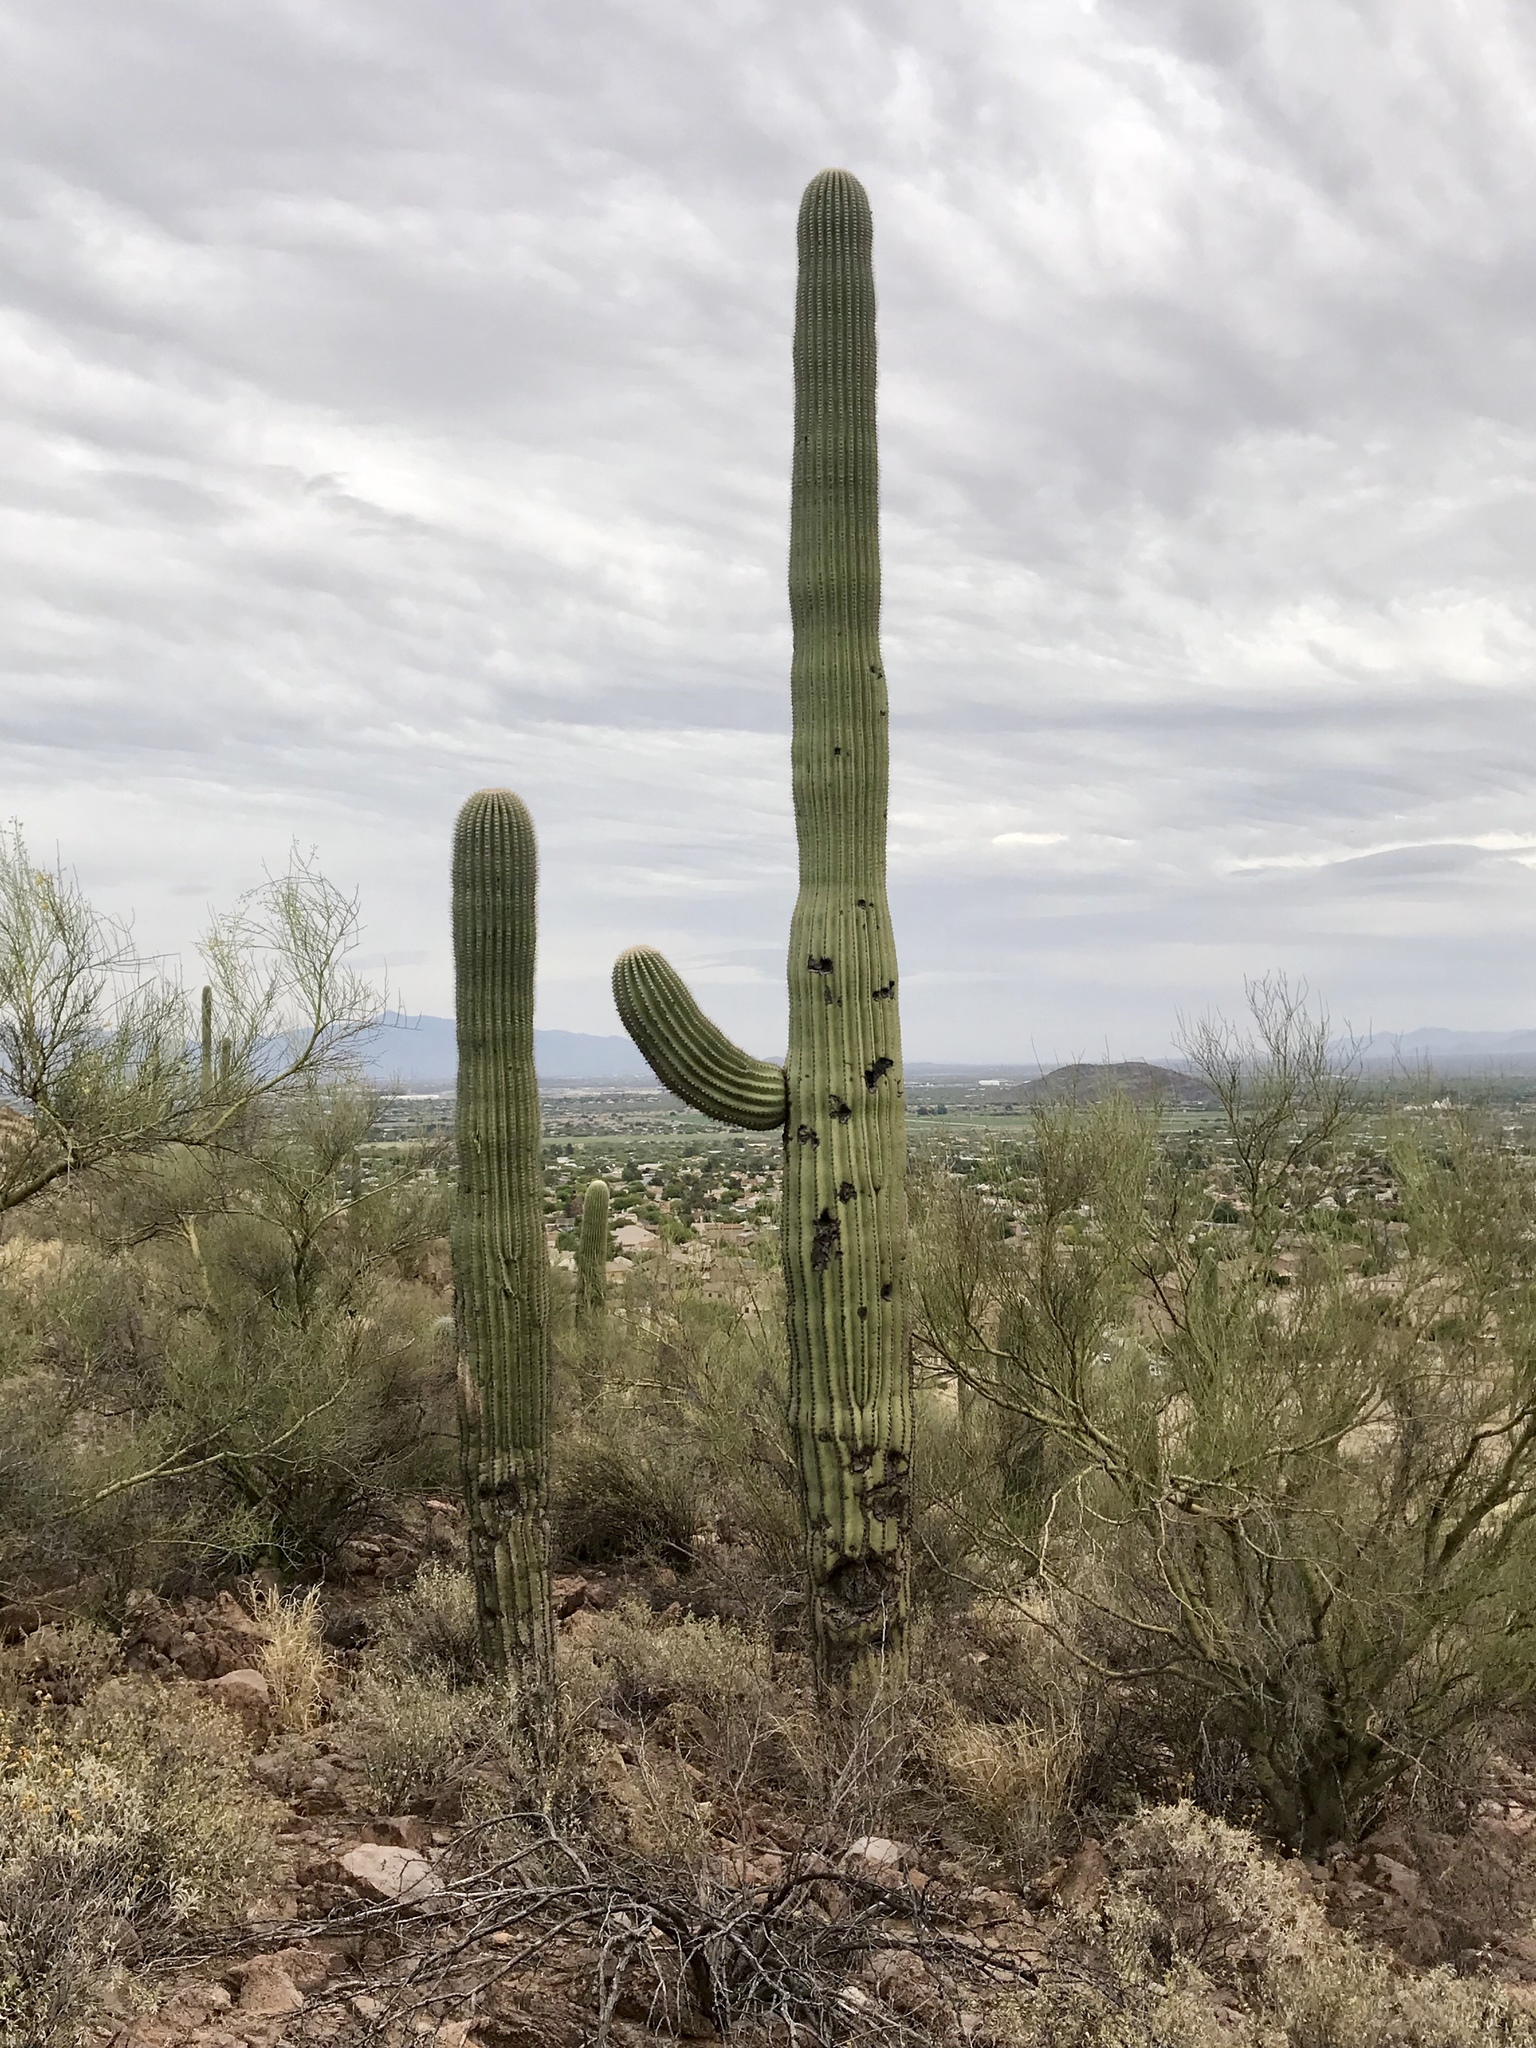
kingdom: Plantae
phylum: Tracheophyta
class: Magnoliopsida
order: Caryophyllales
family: Cactaceae
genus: Carnegiea
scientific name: Carnegiea gigantea
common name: Saguaro
